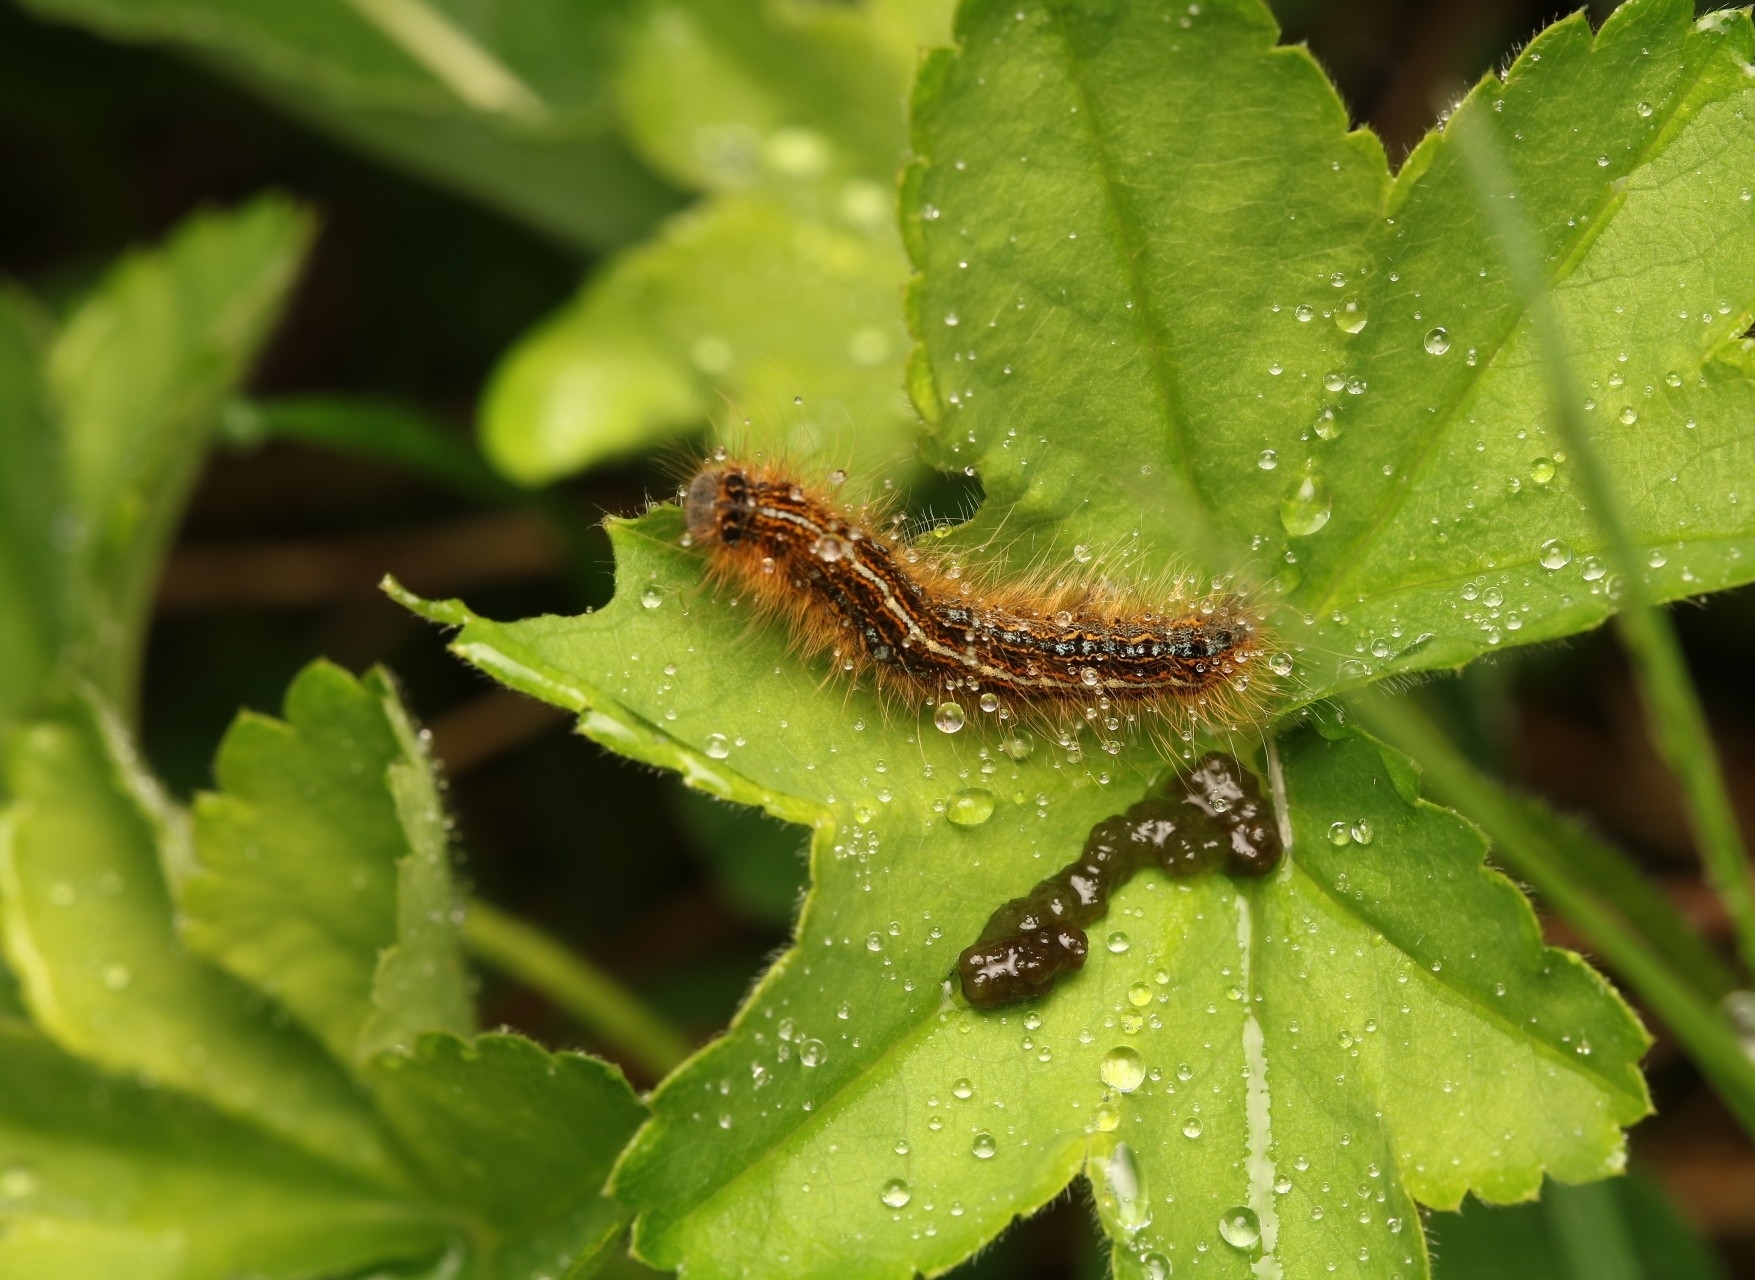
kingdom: Animalia
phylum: Arthropoda
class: Insecta
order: Lepidoptera
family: Lasiocampidae
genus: Malacosoma
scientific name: Malacosoma alpicola
